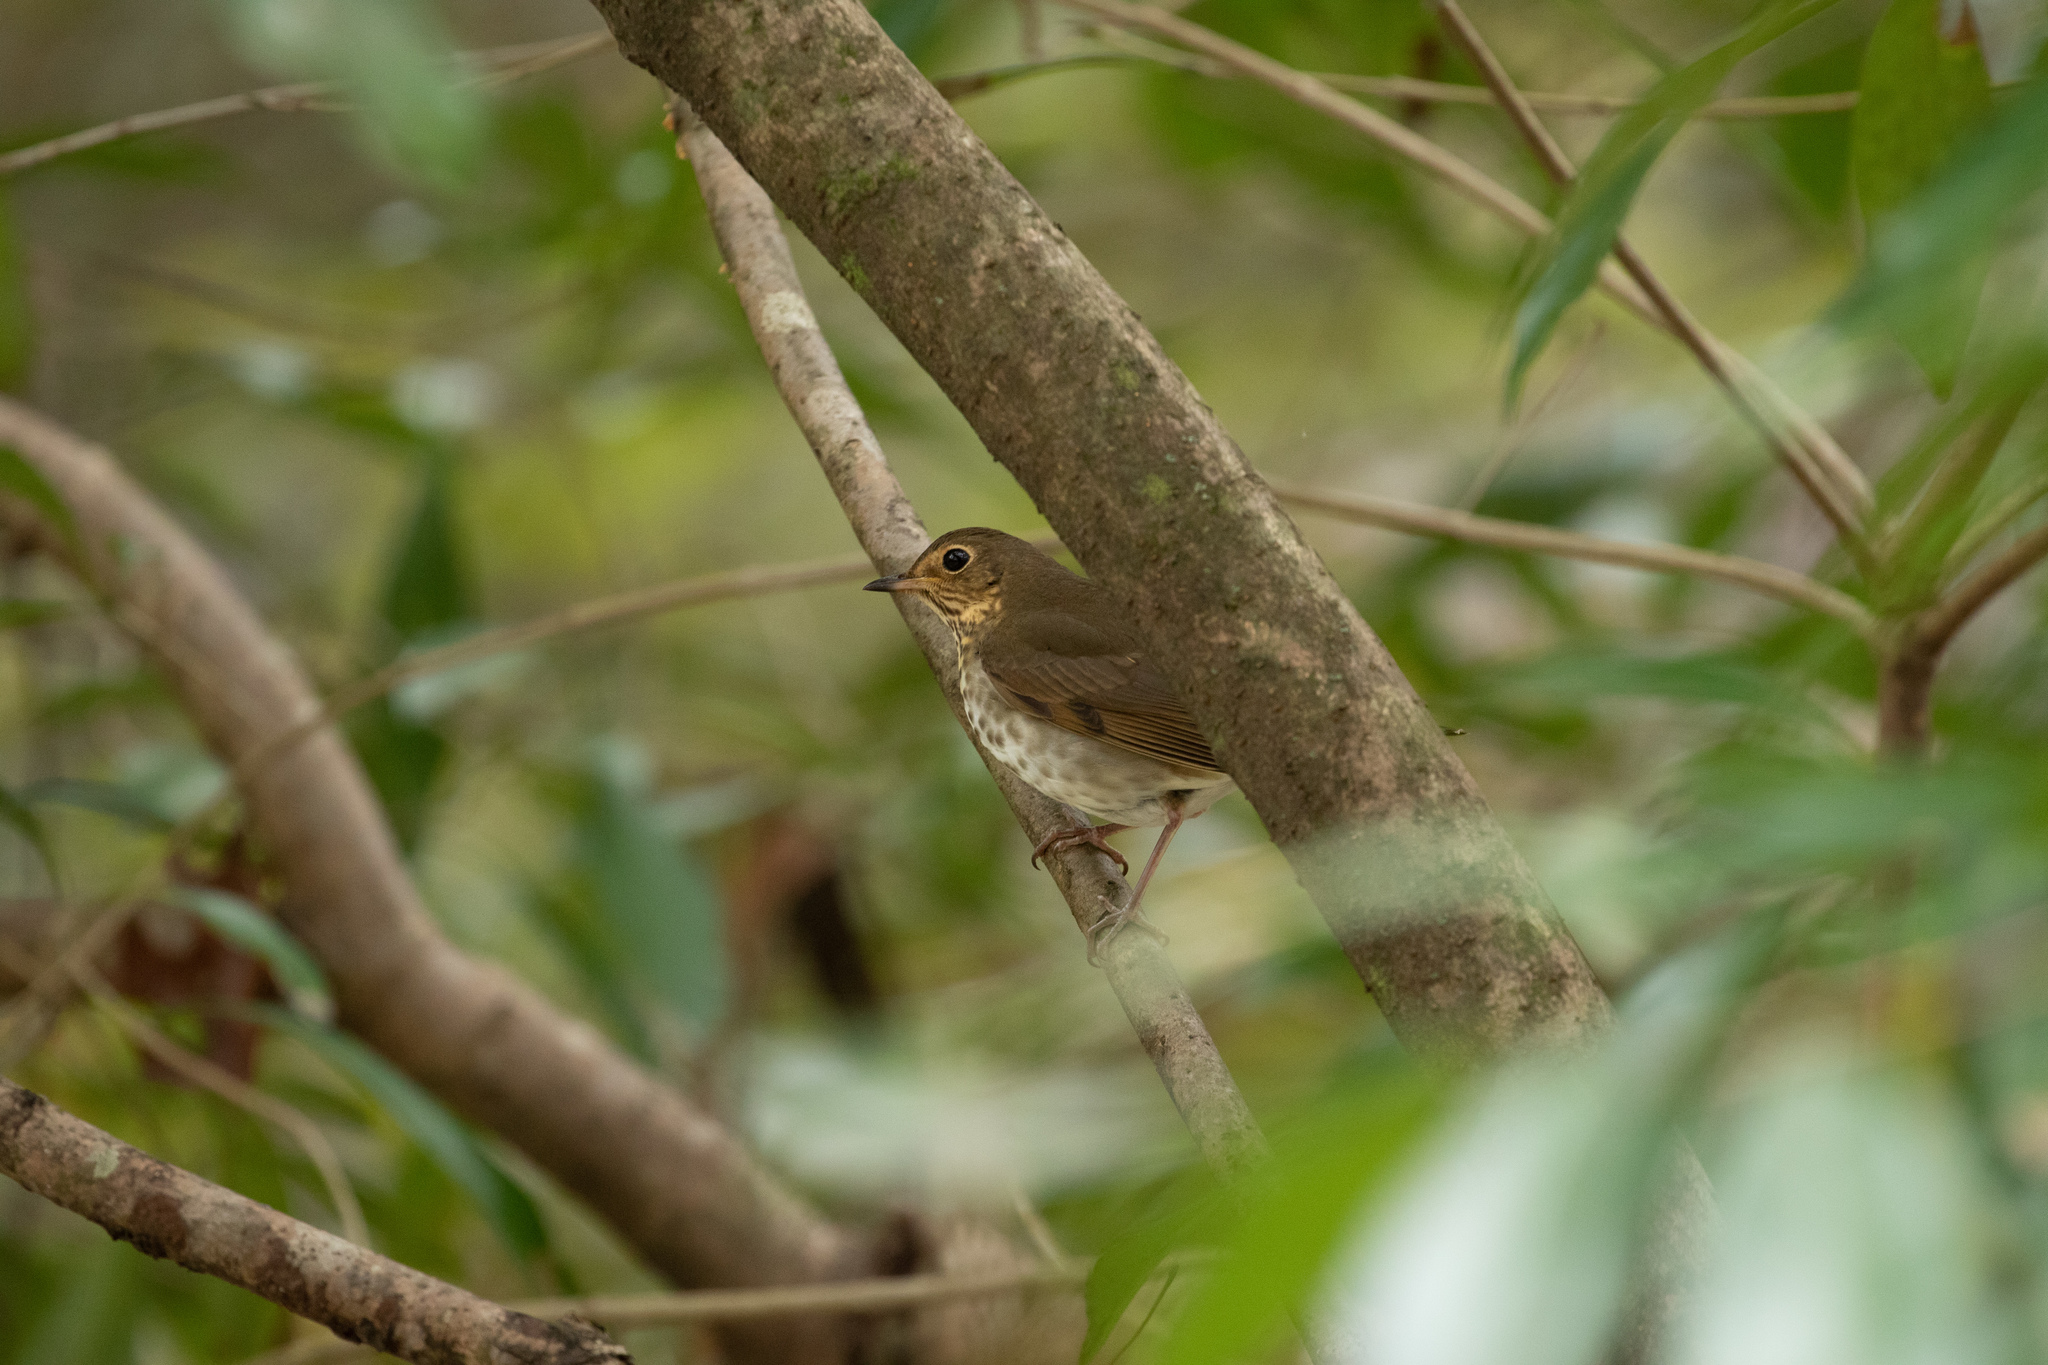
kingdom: Animalia
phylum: Chordata
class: Aves
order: Passeriformes
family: Turdidae
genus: Catharus
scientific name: Catharus ustulatus
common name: Swainson's thrush
